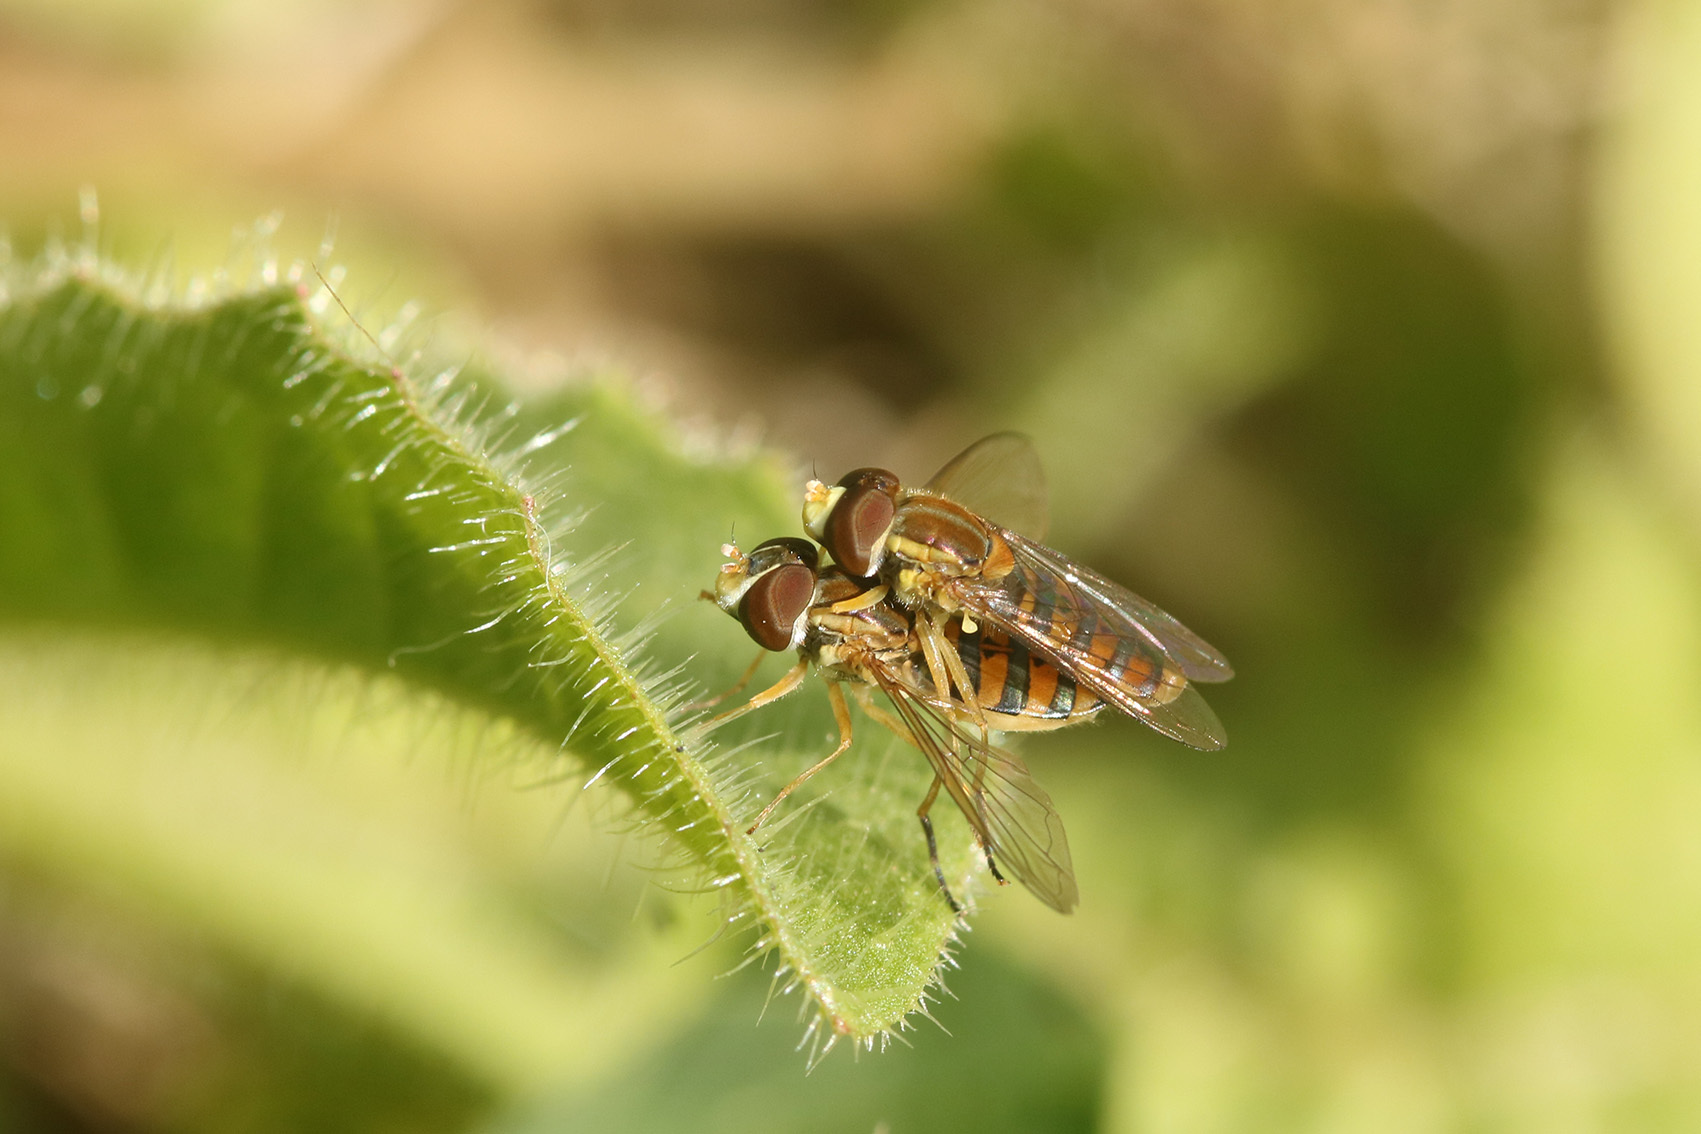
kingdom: Animalia
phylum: Arthropoda
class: Insecta
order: Diptera
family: Syrphidae
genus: Toxomerus
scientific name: Toxomerus
